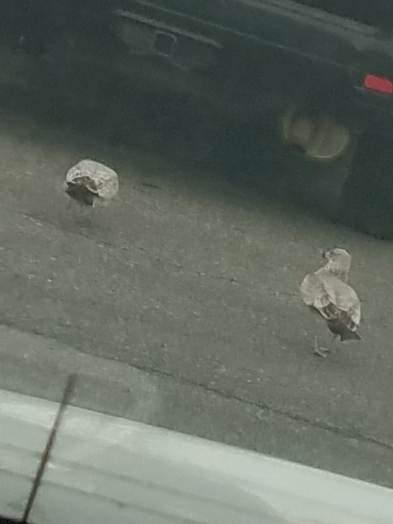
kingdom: Animalia
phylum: Chordata
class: Aves
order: Charadriiformes
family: Laridae
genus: Larus
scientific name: Larus delawarensis
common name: Ring-billed gull
